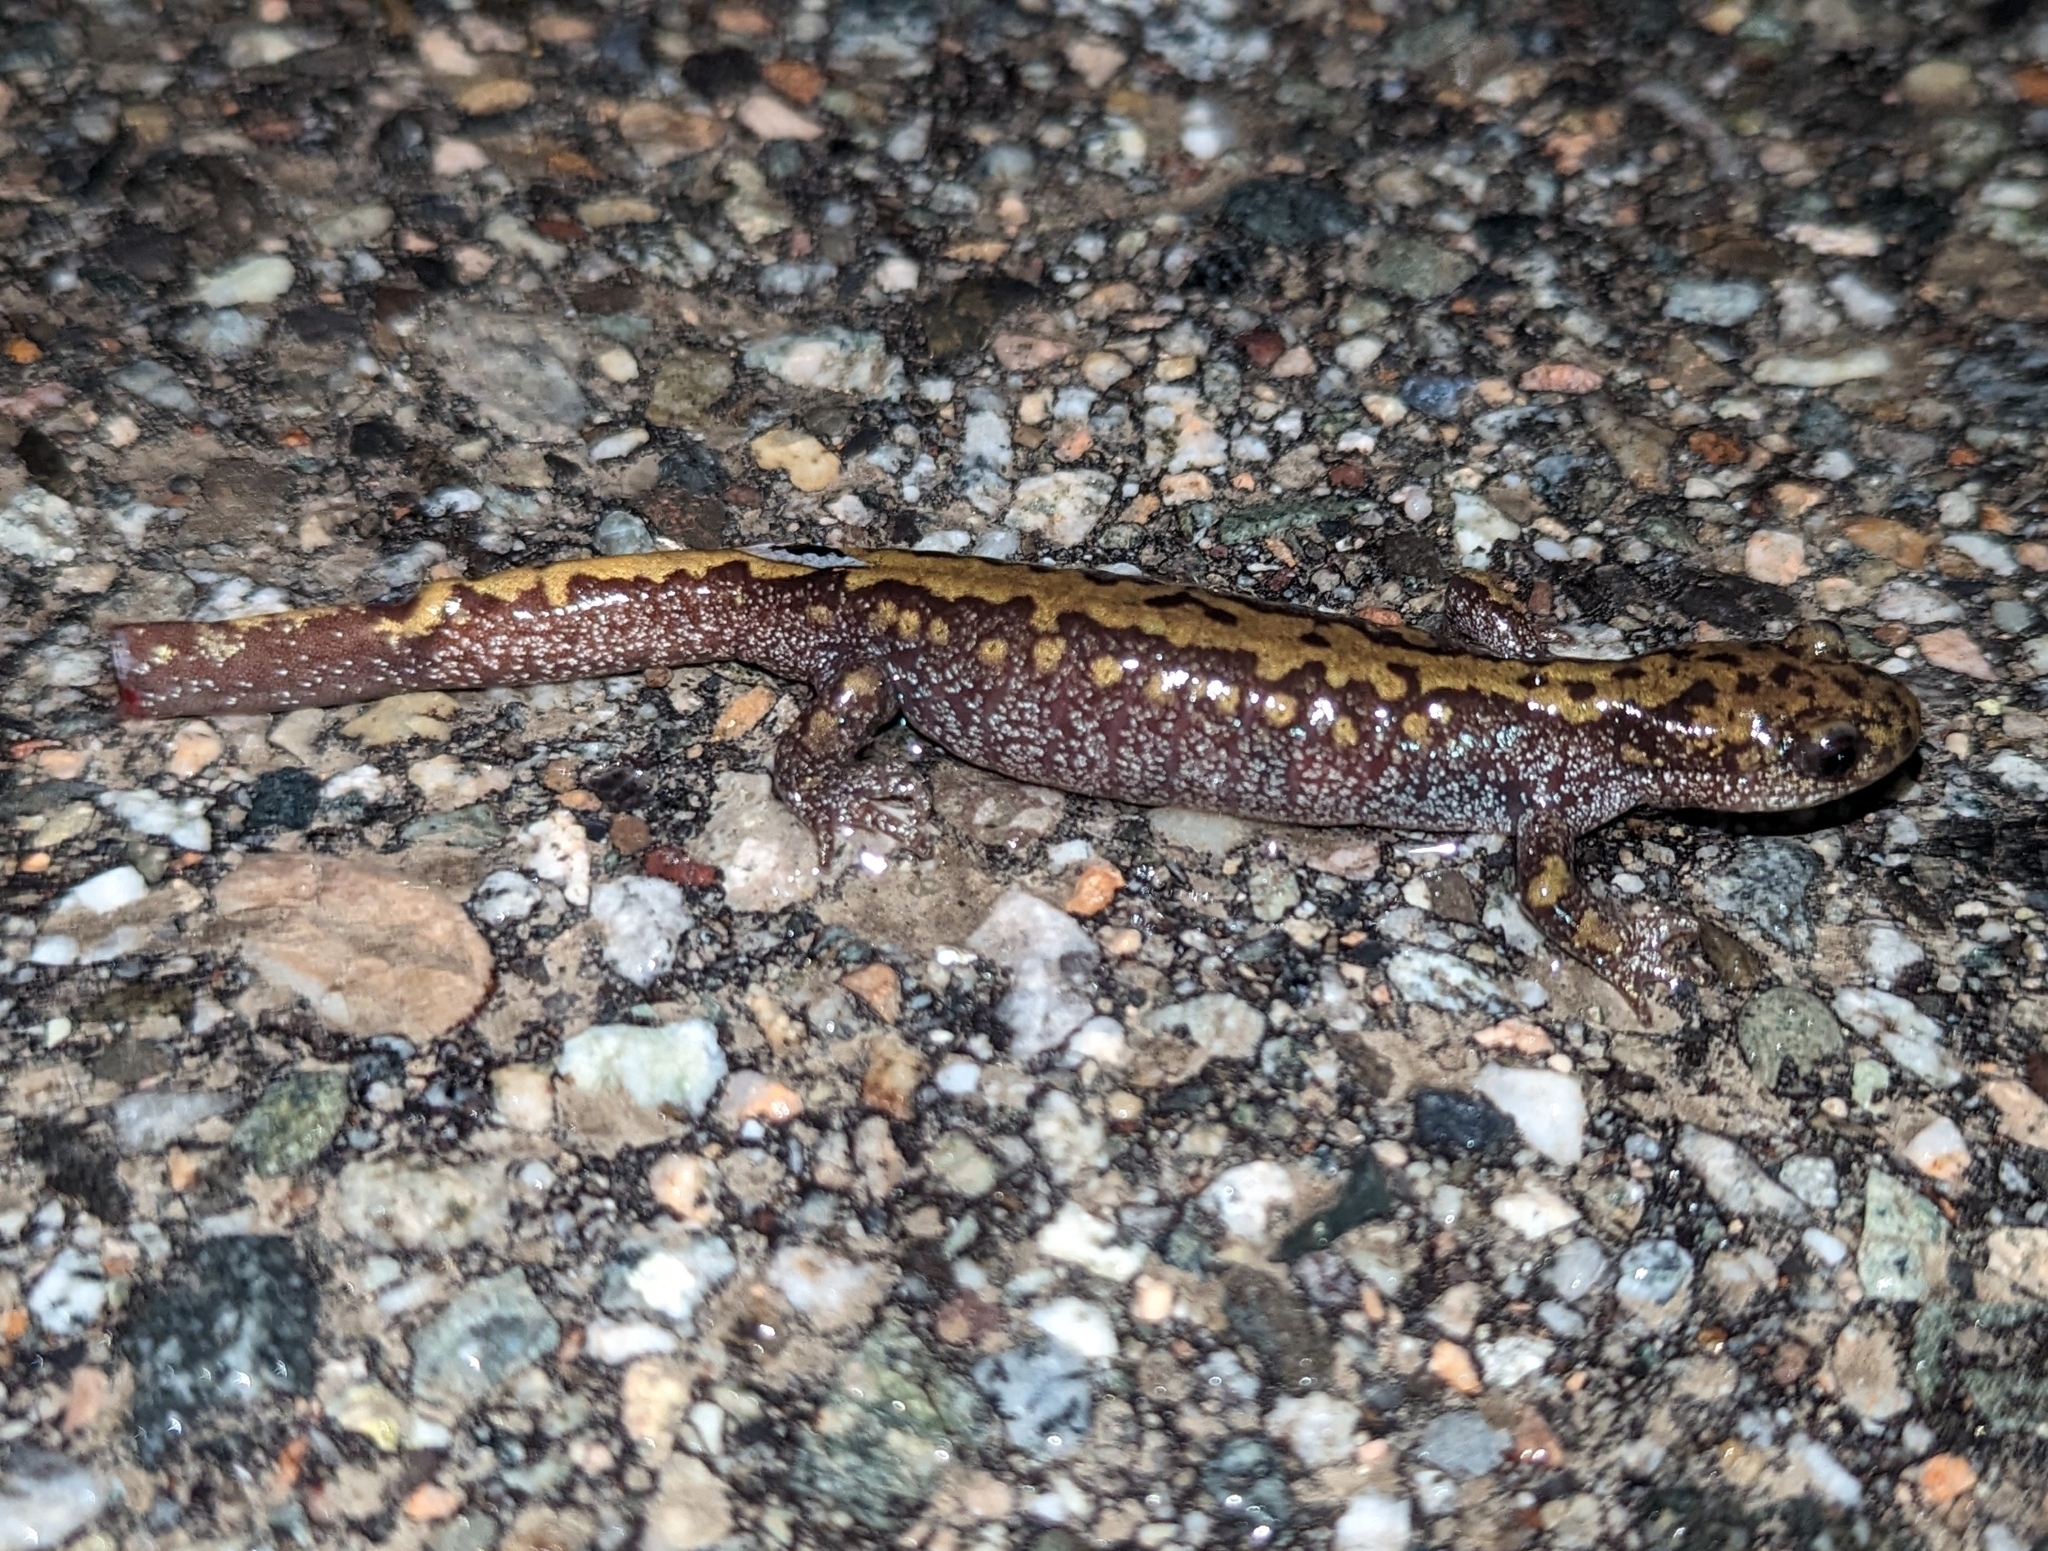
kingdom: Animalia
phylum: Chordata
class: Amphibia
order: Caudata
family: Ambystomatidae
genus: Ambystoma
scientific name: Ambystoma macrodactylum
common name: Long-toed salamander
